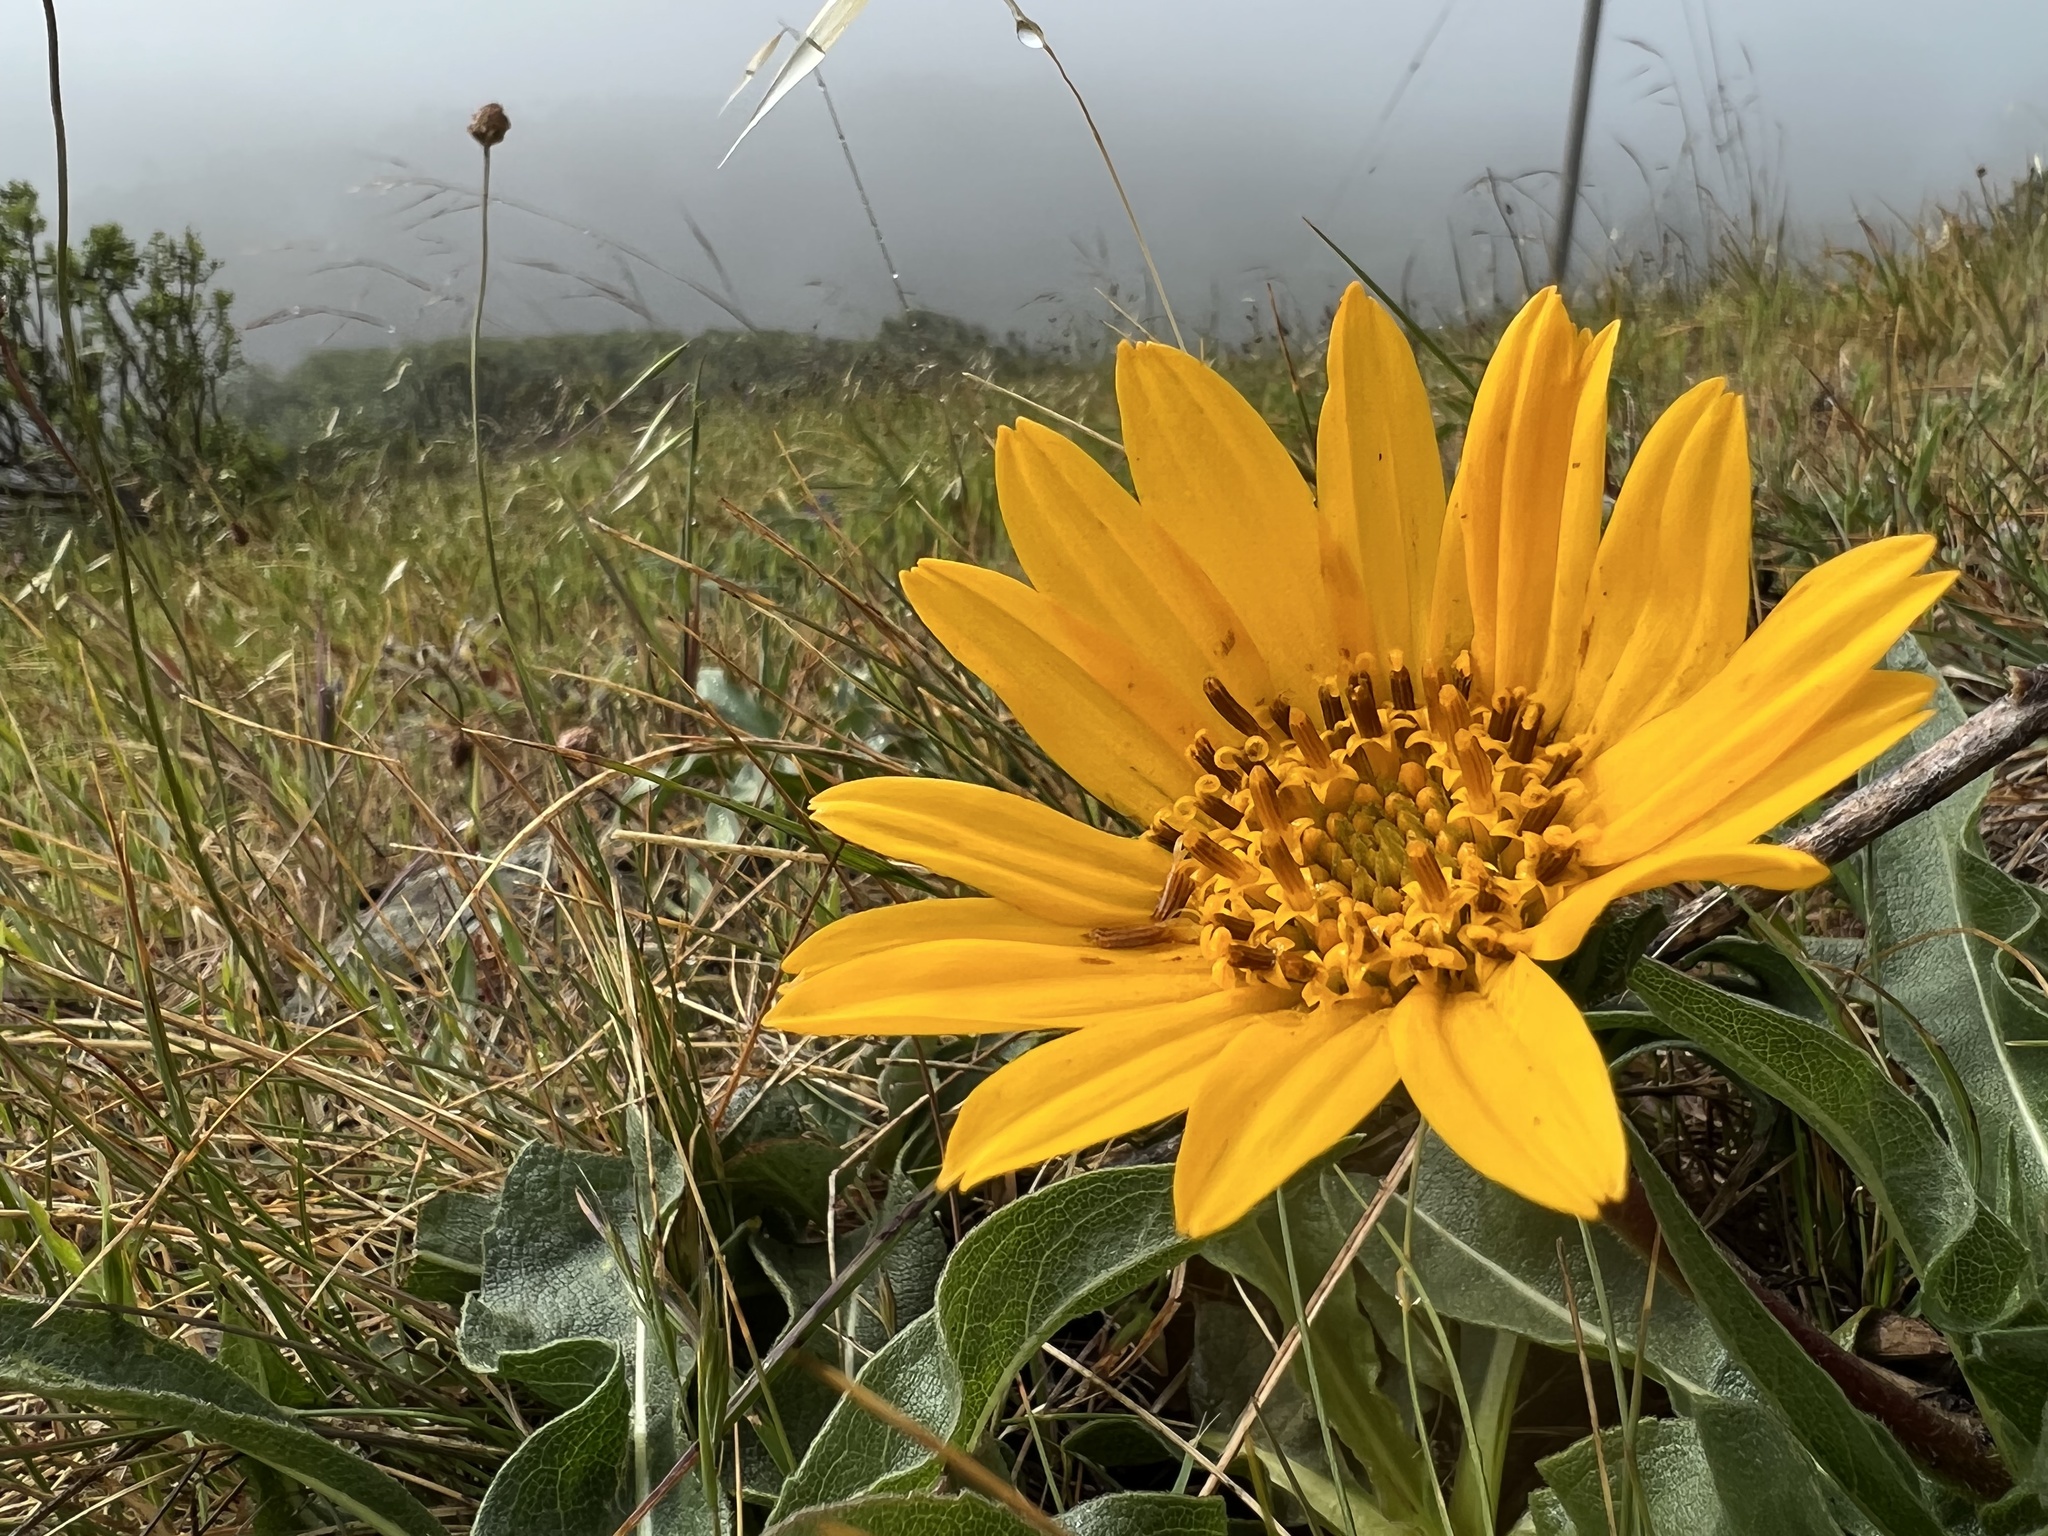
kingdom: Plantae
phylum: Tracheophyta
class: Magnoliopsida
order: Asterales
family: Asteraceae
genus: Wyethia
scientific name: Wyethia angustifolia
